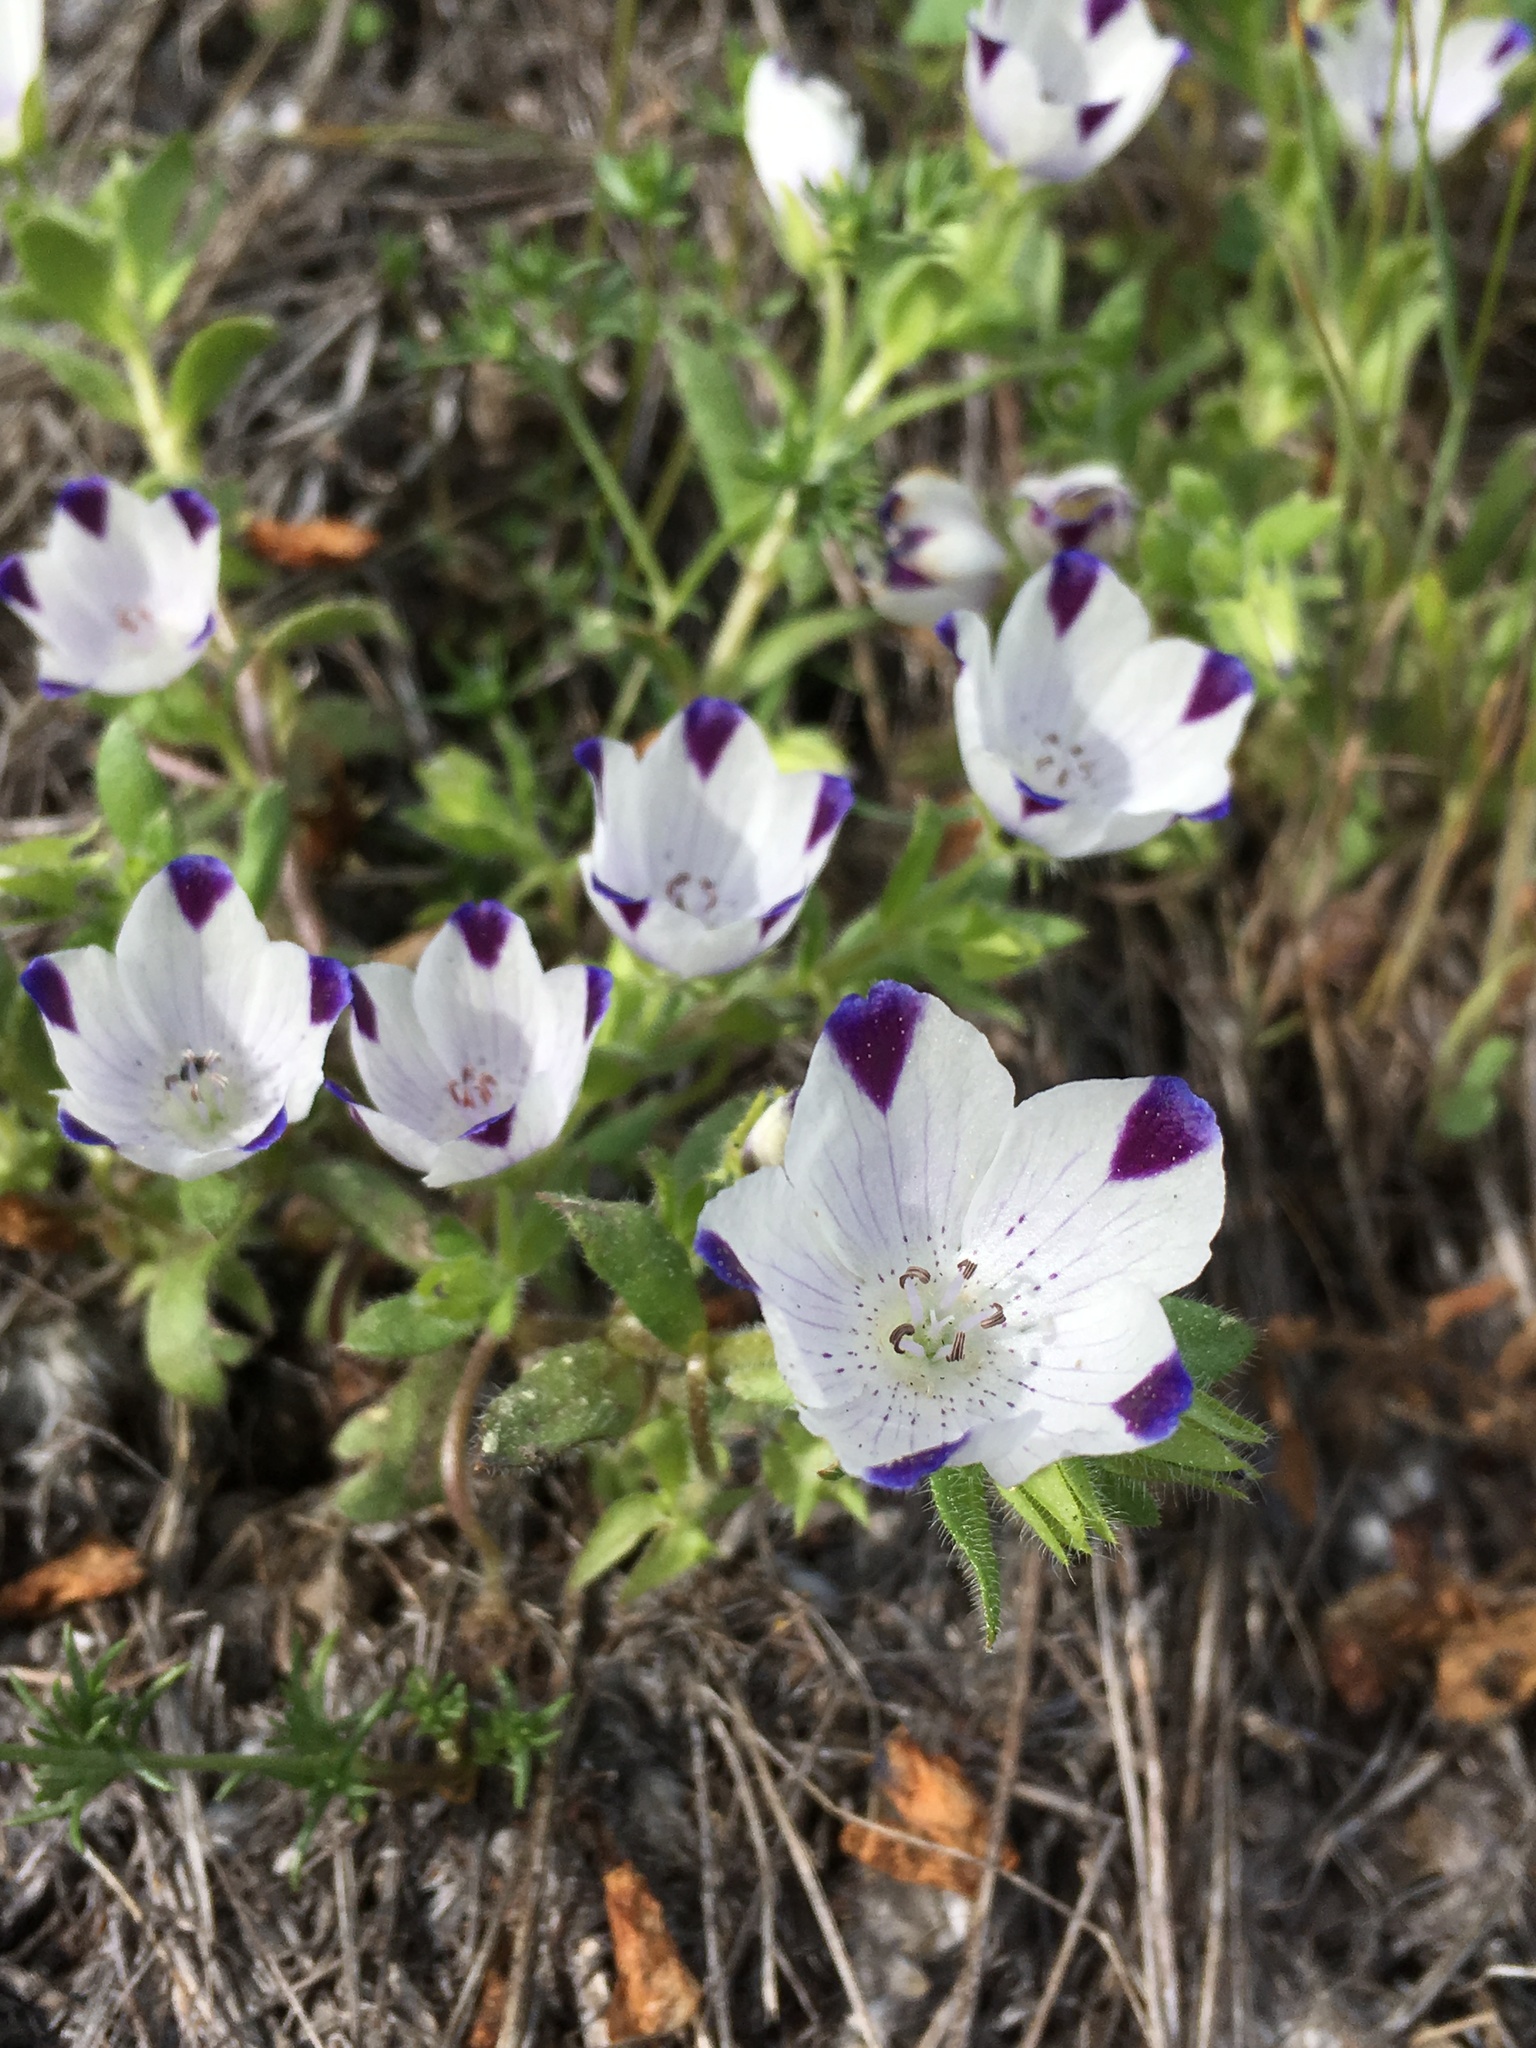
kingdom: Plantae
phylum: Tracheophyta
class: Magnoliopsida
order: Boraginales
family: Hydrophyllaceae
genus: Nemophila
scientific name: Nemophila maculata
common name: Fivespot
